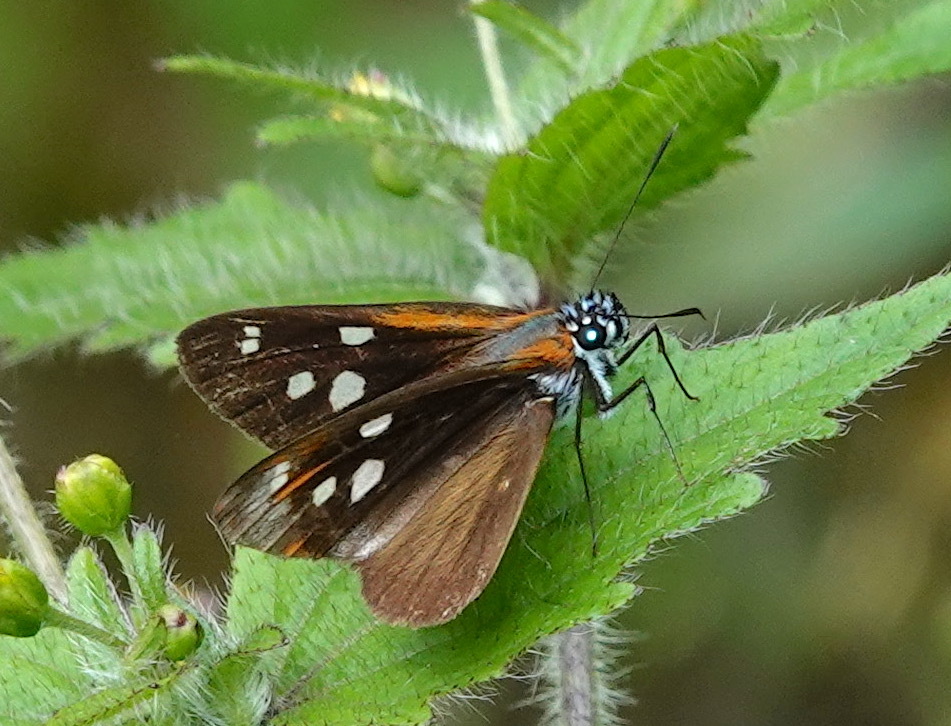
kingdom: Animalia
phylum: Arthropoda
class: Insecta
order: Lepidoptera
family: Hesperiidae
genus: Corra
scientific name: Corra
